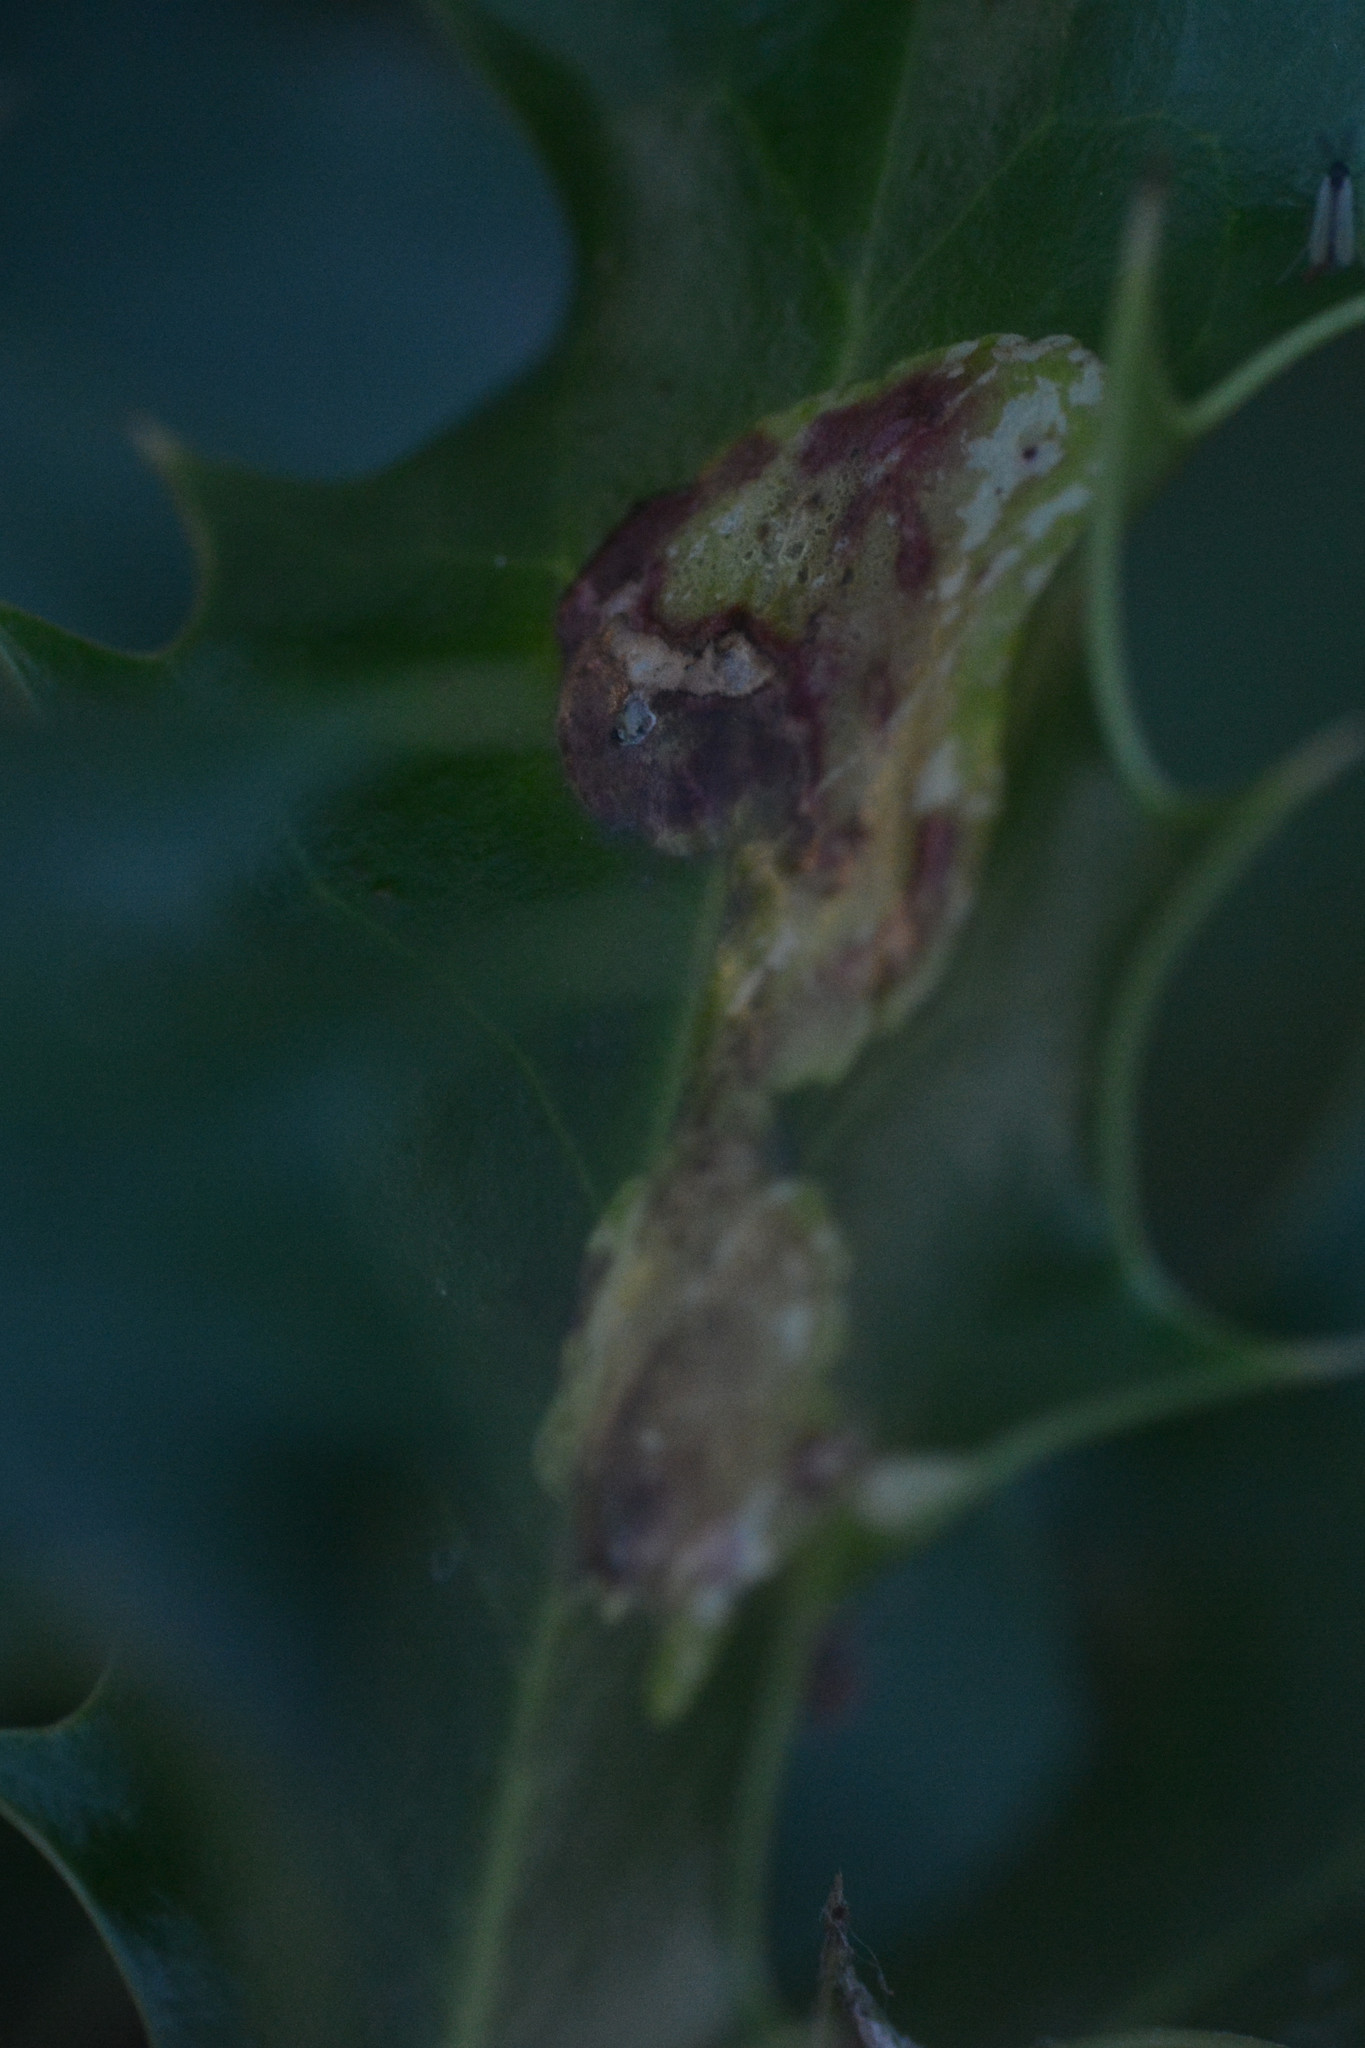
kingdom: Animalia
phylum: Arthropoda
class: Insecta
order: Diptera
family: Agromyzidae
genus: Phytomyza
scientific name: Phytomyza ilicis
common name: Holly leafminer
